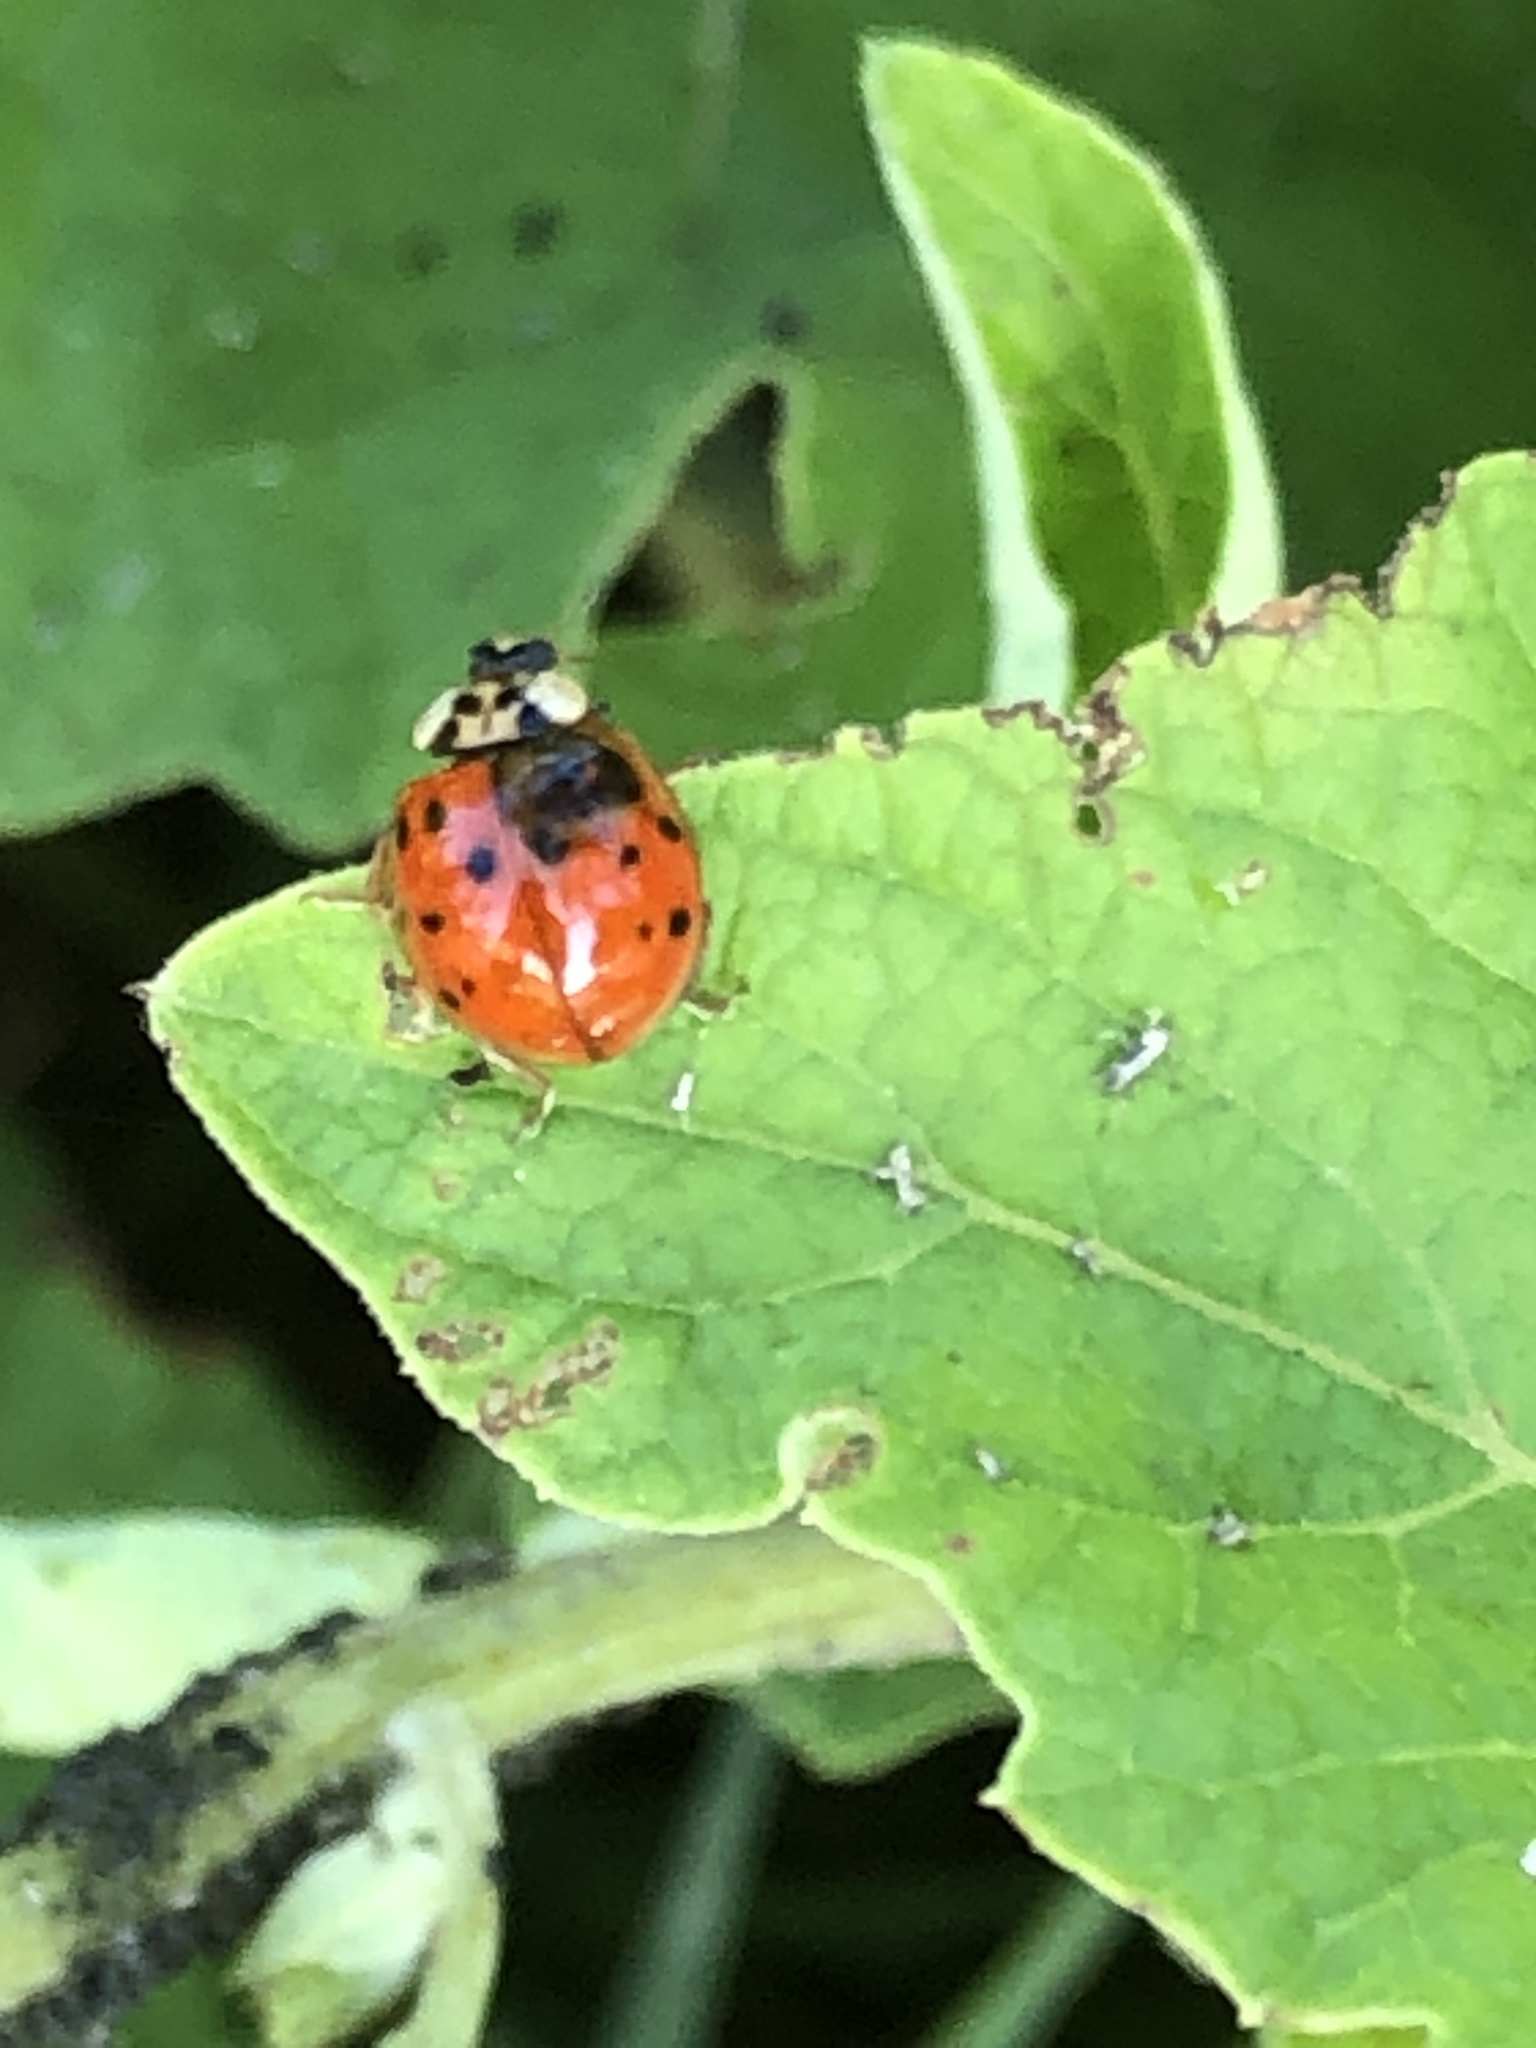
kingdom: Animalia
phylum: Arthropoda
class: Insecta
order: Coleoptera
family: Coccinellidae
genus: Harmonia
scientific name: Harmonia axyridis
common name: Harlequin ladybird
